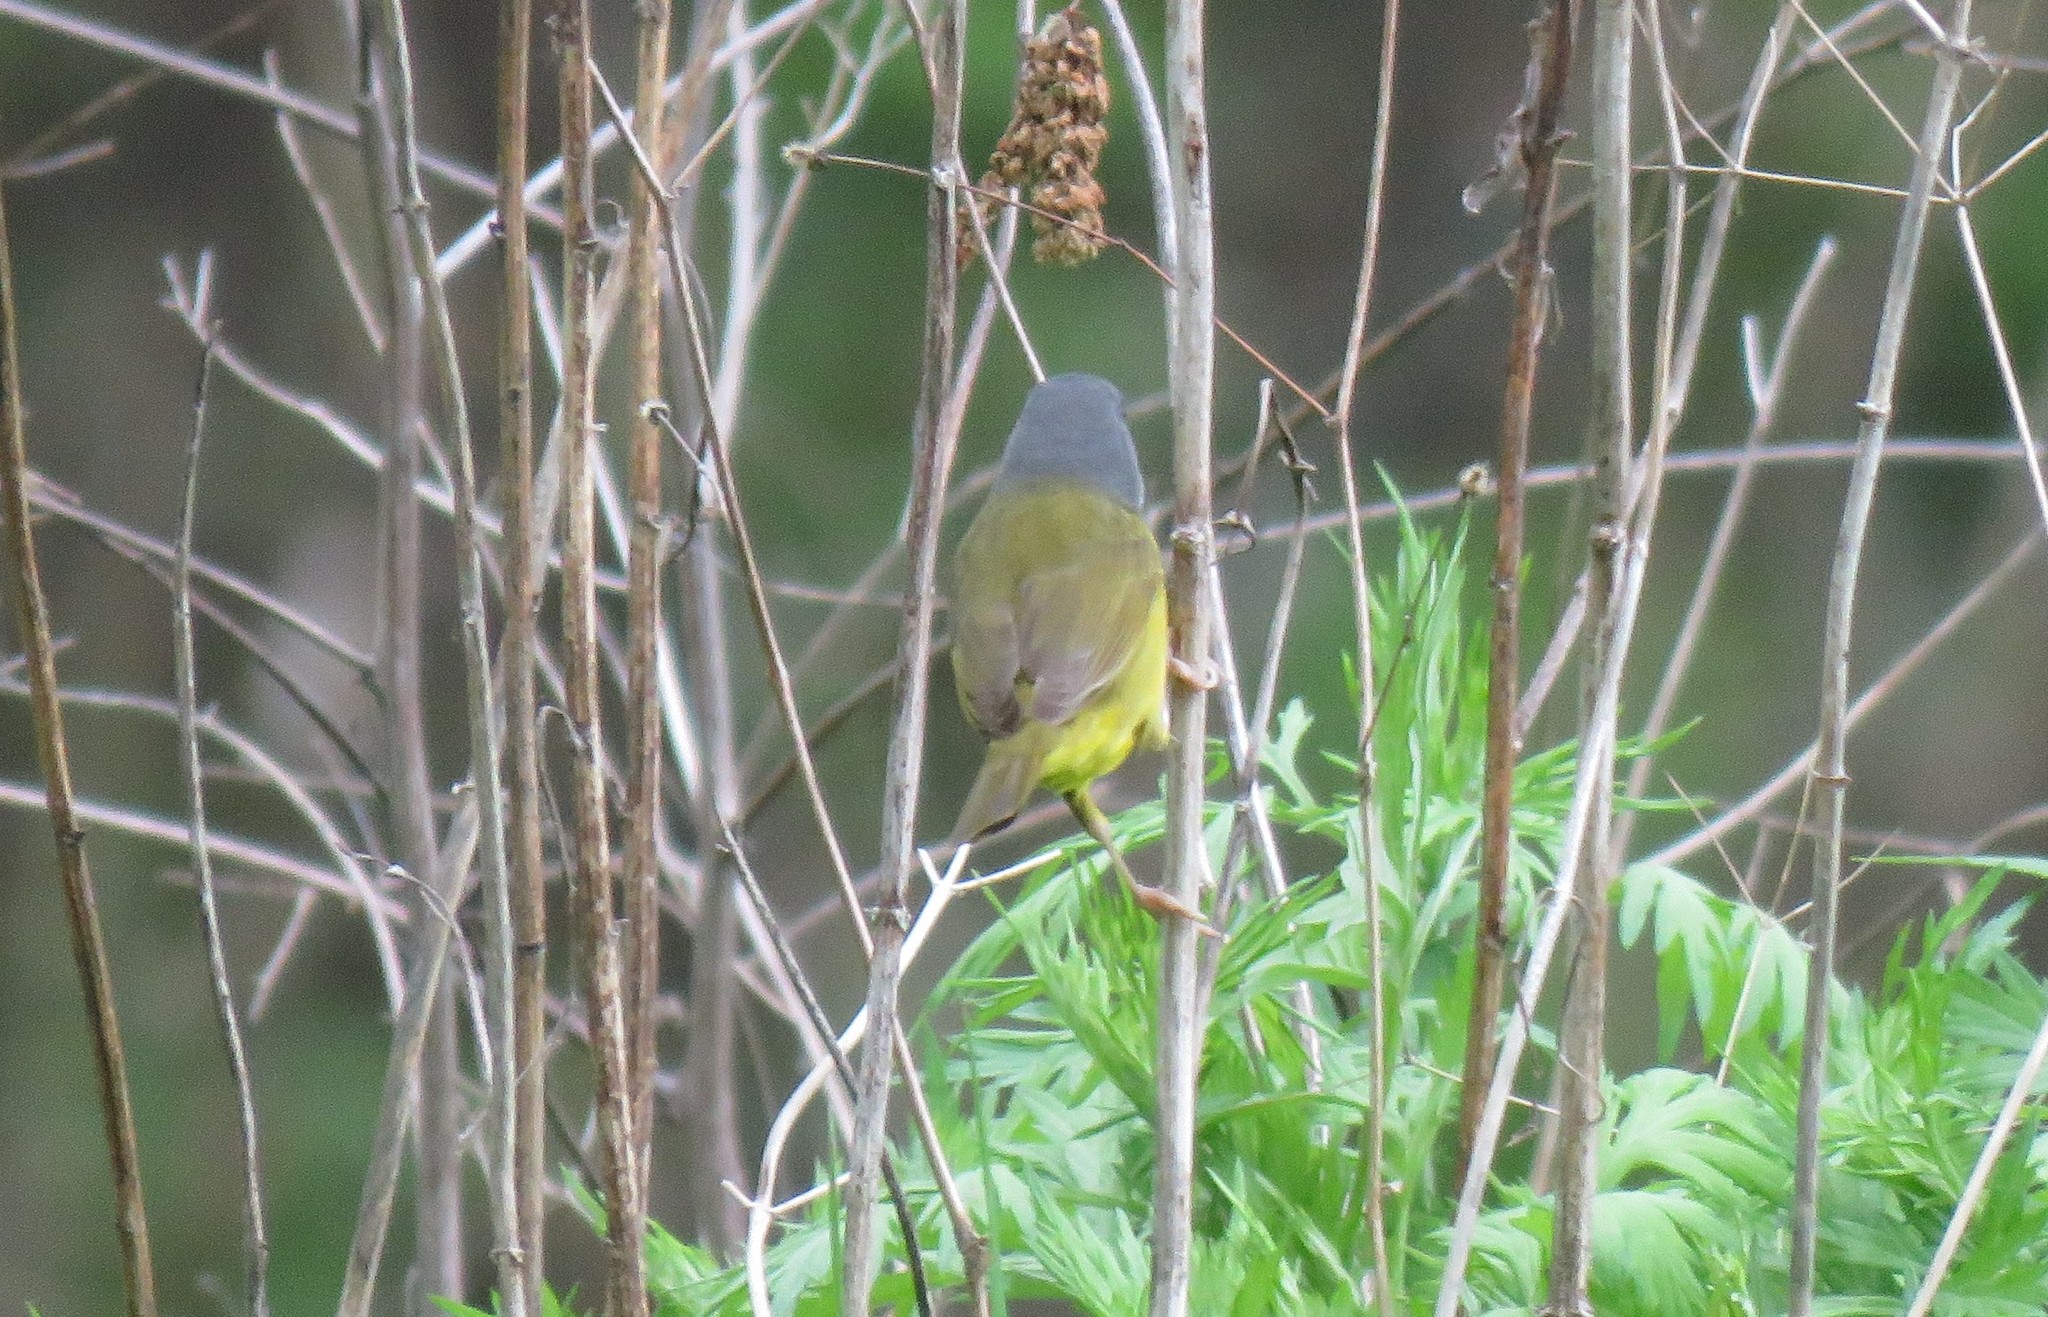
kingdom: Animalia
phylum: Chordata
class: Aves
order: Passeriformes
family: Parulidae
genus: Geothlypis
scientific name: Geothlypis philadelphia
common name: Mourning warbler
